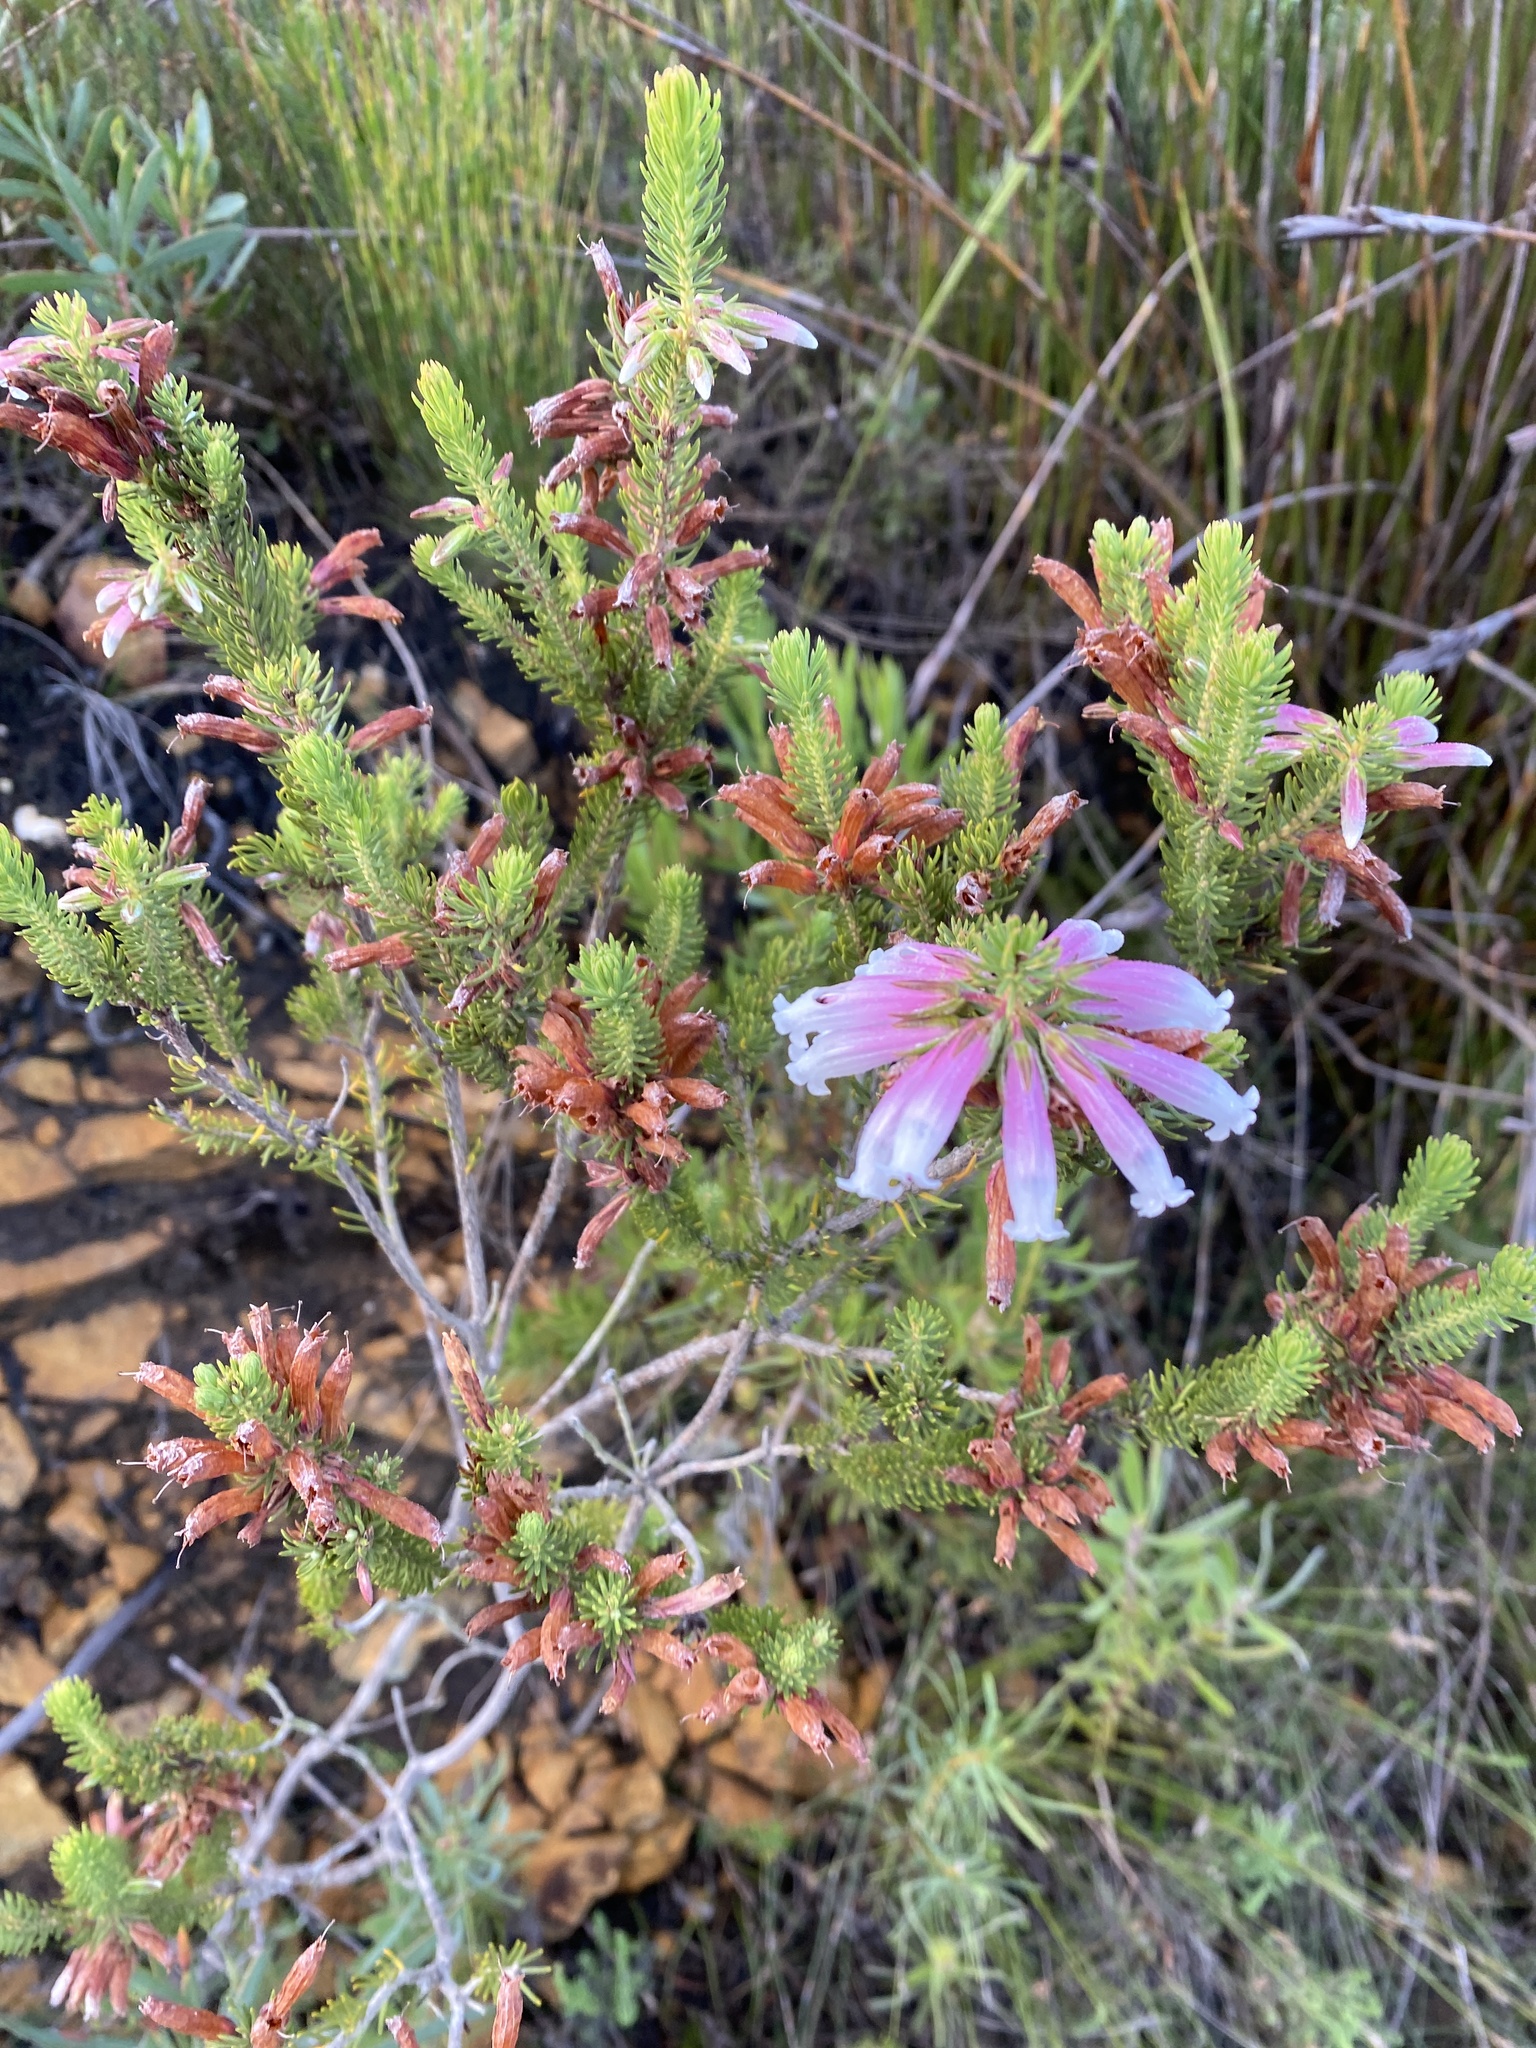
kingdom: Plantae
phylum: Tracheophyta
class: Magnoliopsida
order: Ericales
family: Ericaceae
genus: Erica
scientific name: Erica viscaria
